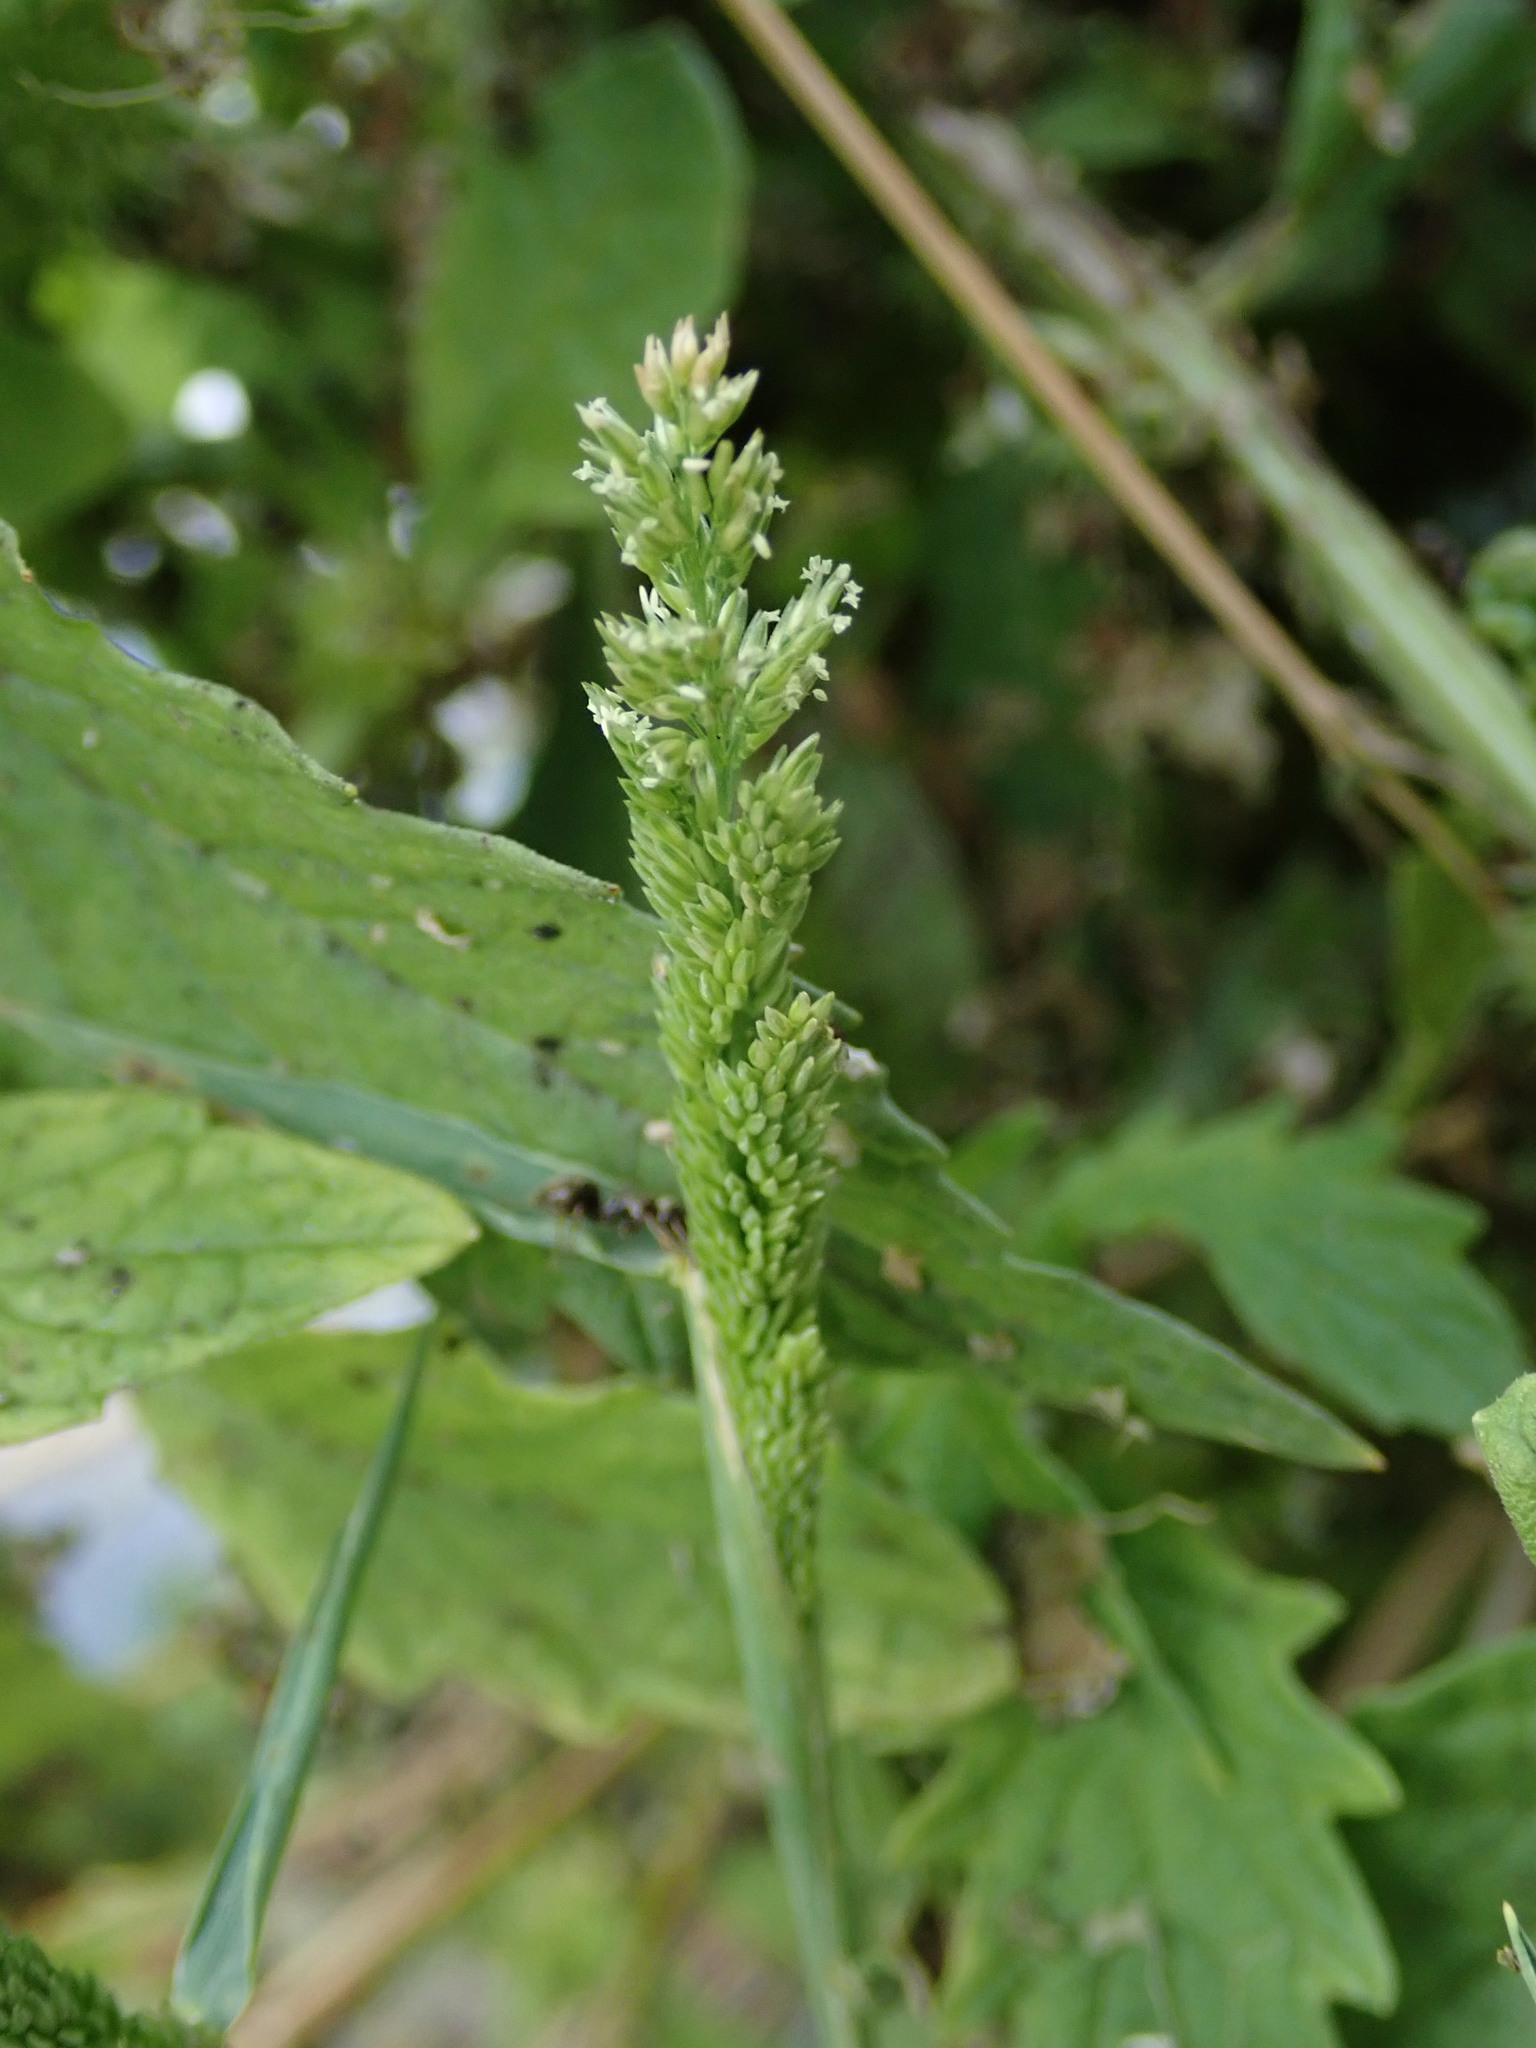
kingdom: Plantae
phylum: Tracheophyta
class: Liliopsida
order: Poales
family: Poaceae
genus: Polypogon
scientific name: Polypogon viridis
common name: Water bent
